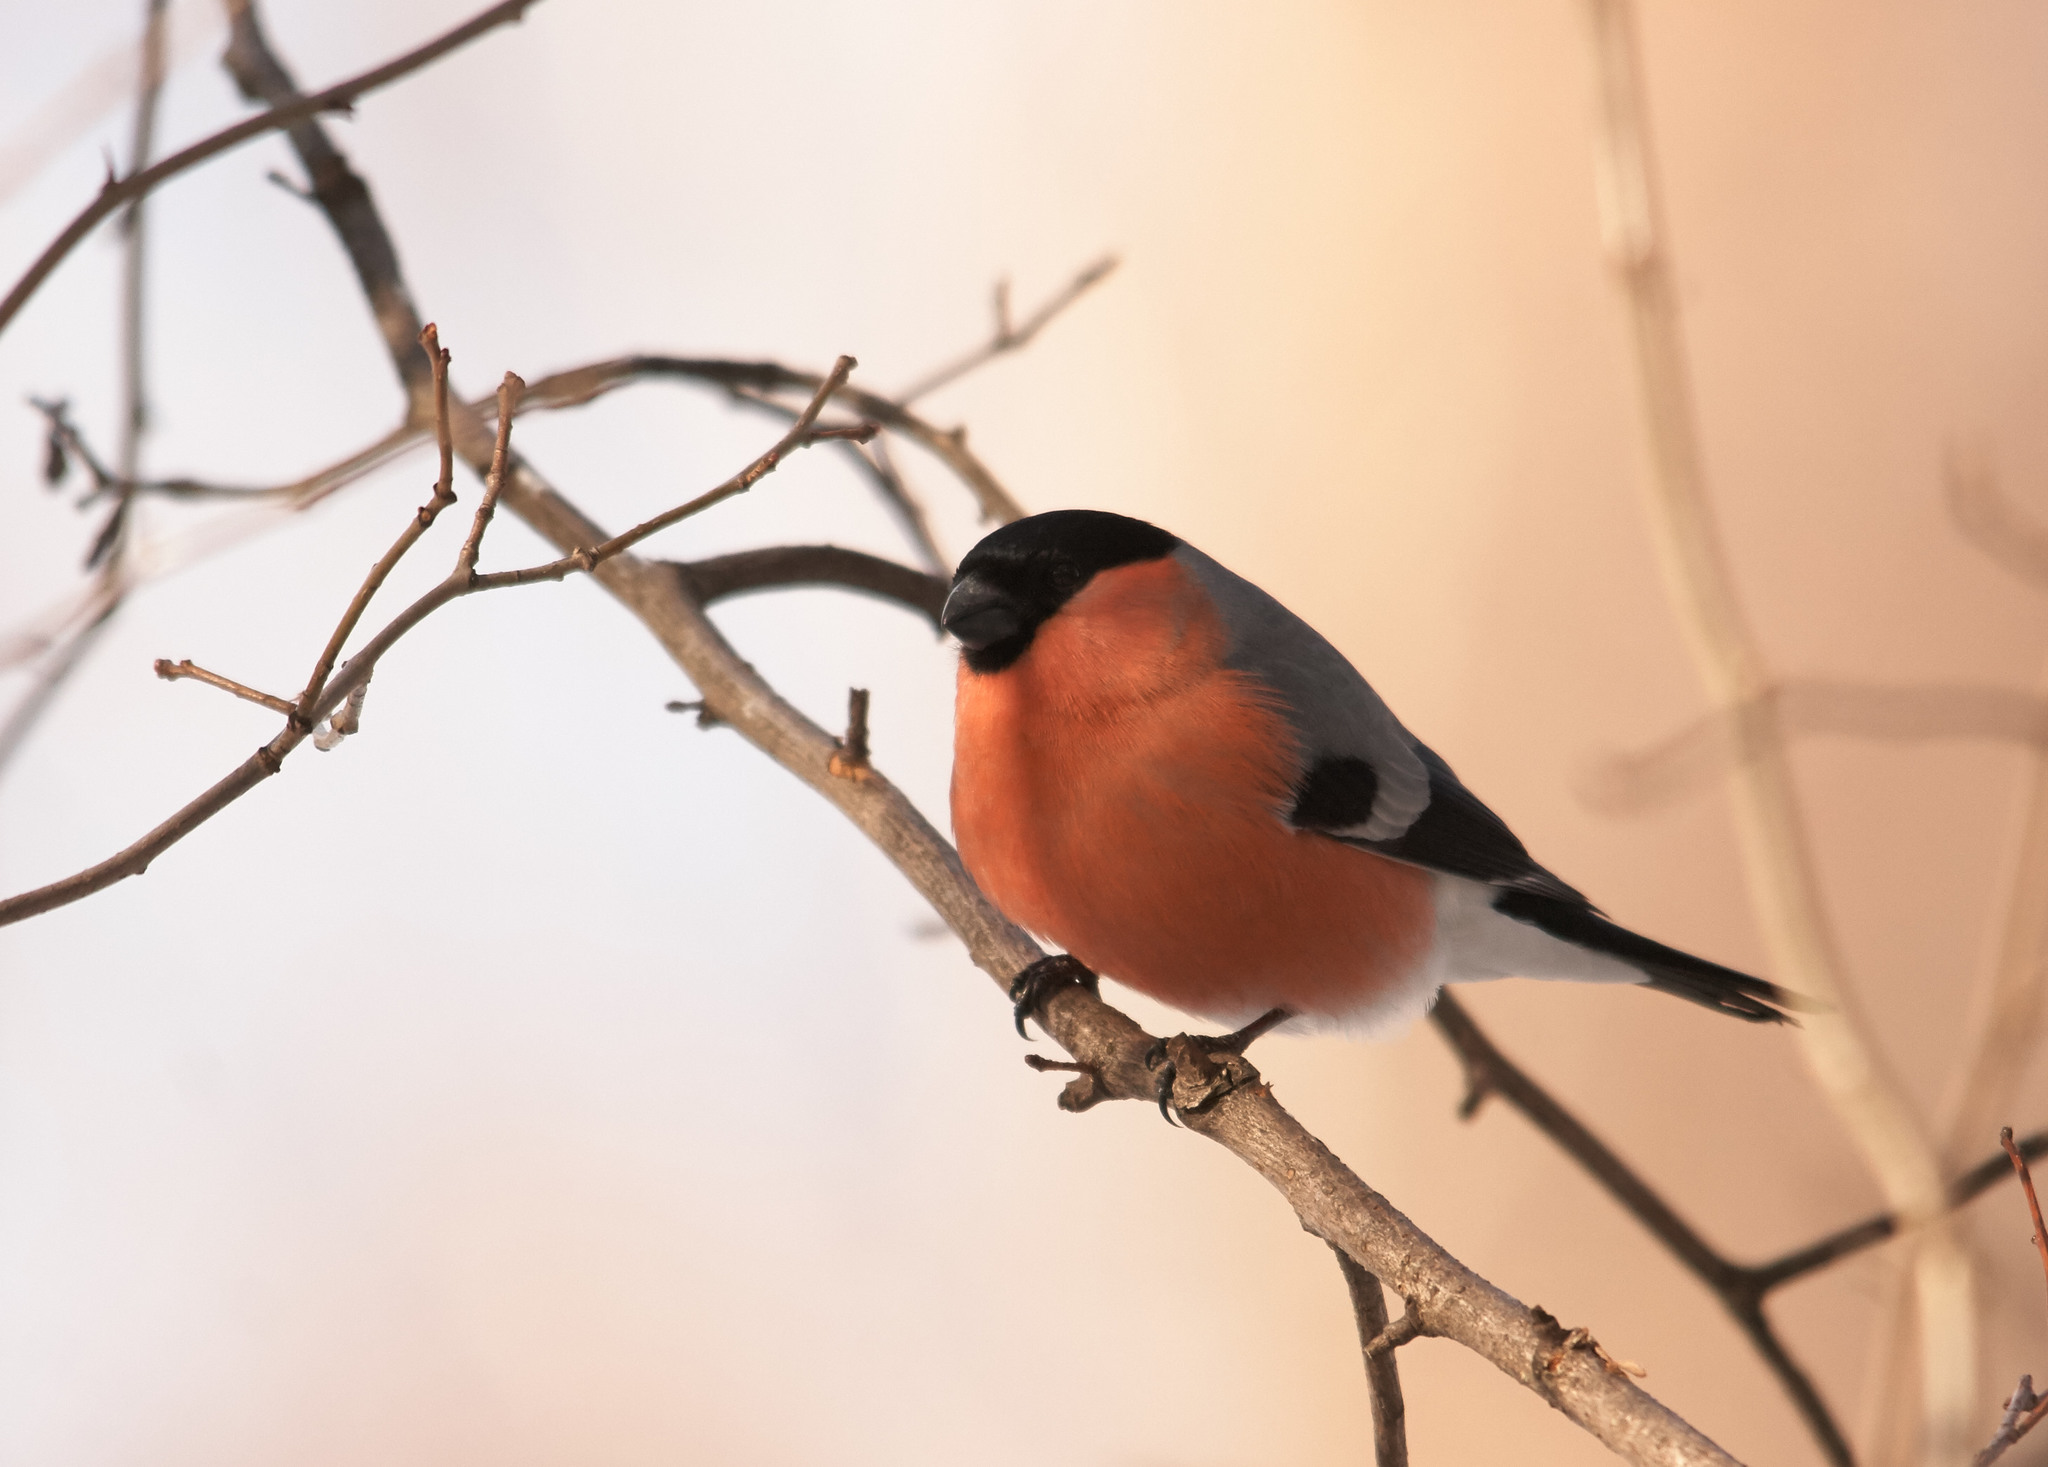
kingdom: Animalia
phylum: Chordata
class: Aves
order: Passeriformes
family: Fringillidae
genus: Pyrrhula
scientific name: Pyrrhula pyrrhula
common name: Eurasian bullfinch
